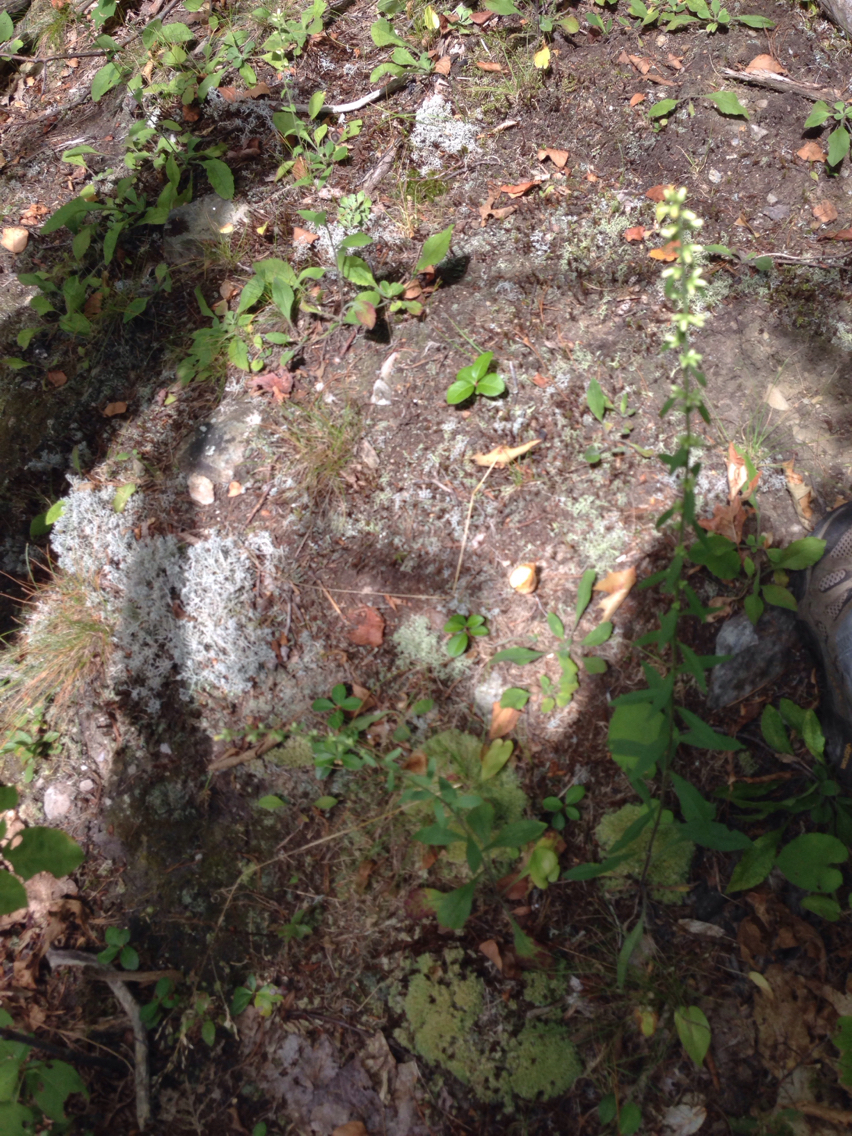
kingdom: Plantae
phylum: Tracheophyta
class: Magnoliopsida
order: Asterales
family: Asteraceae
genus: Solidago
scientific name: Solidago bicolor
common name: Silverrod
